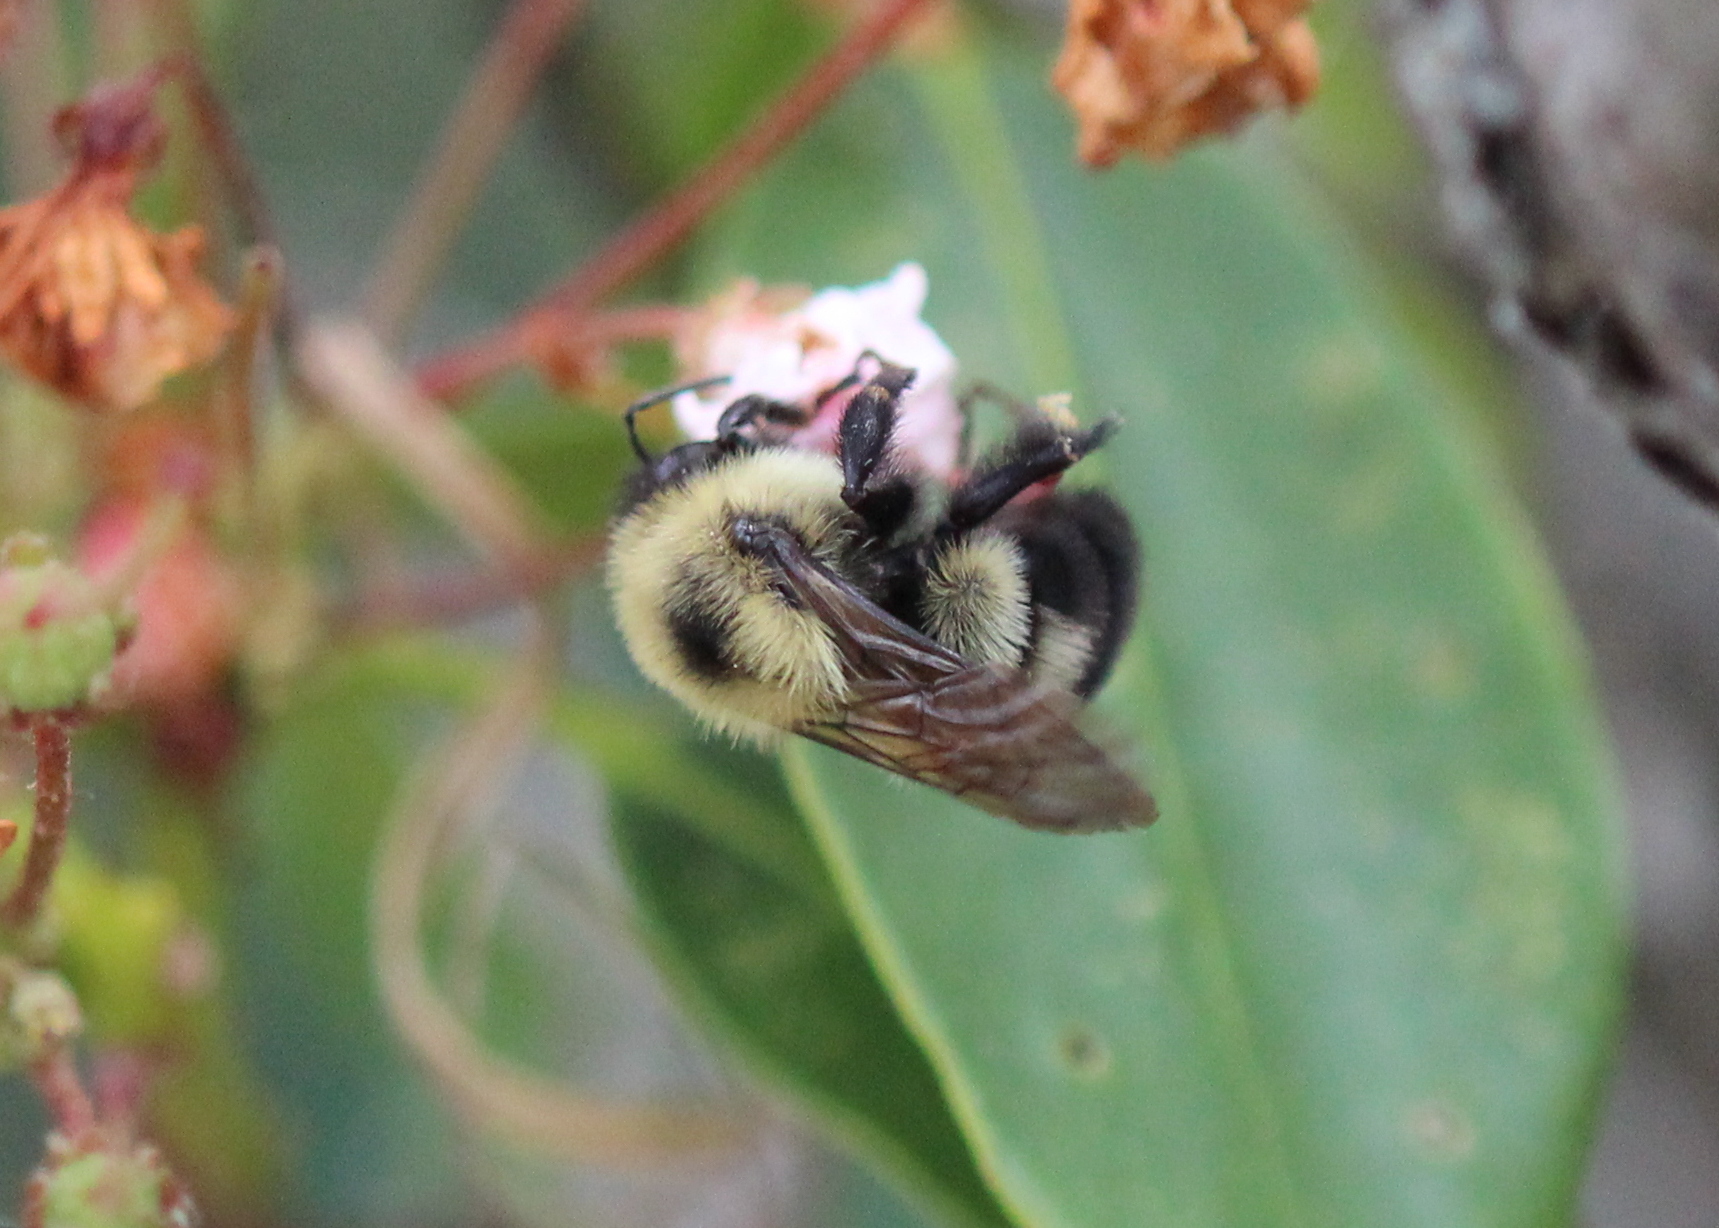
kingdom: Animalia
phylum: Arthropoda
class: Insecta
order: Hymenoptera
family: Apidae
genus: Bombus
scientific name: Bombus bimaculatus
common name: Two-spotted bumble bee
